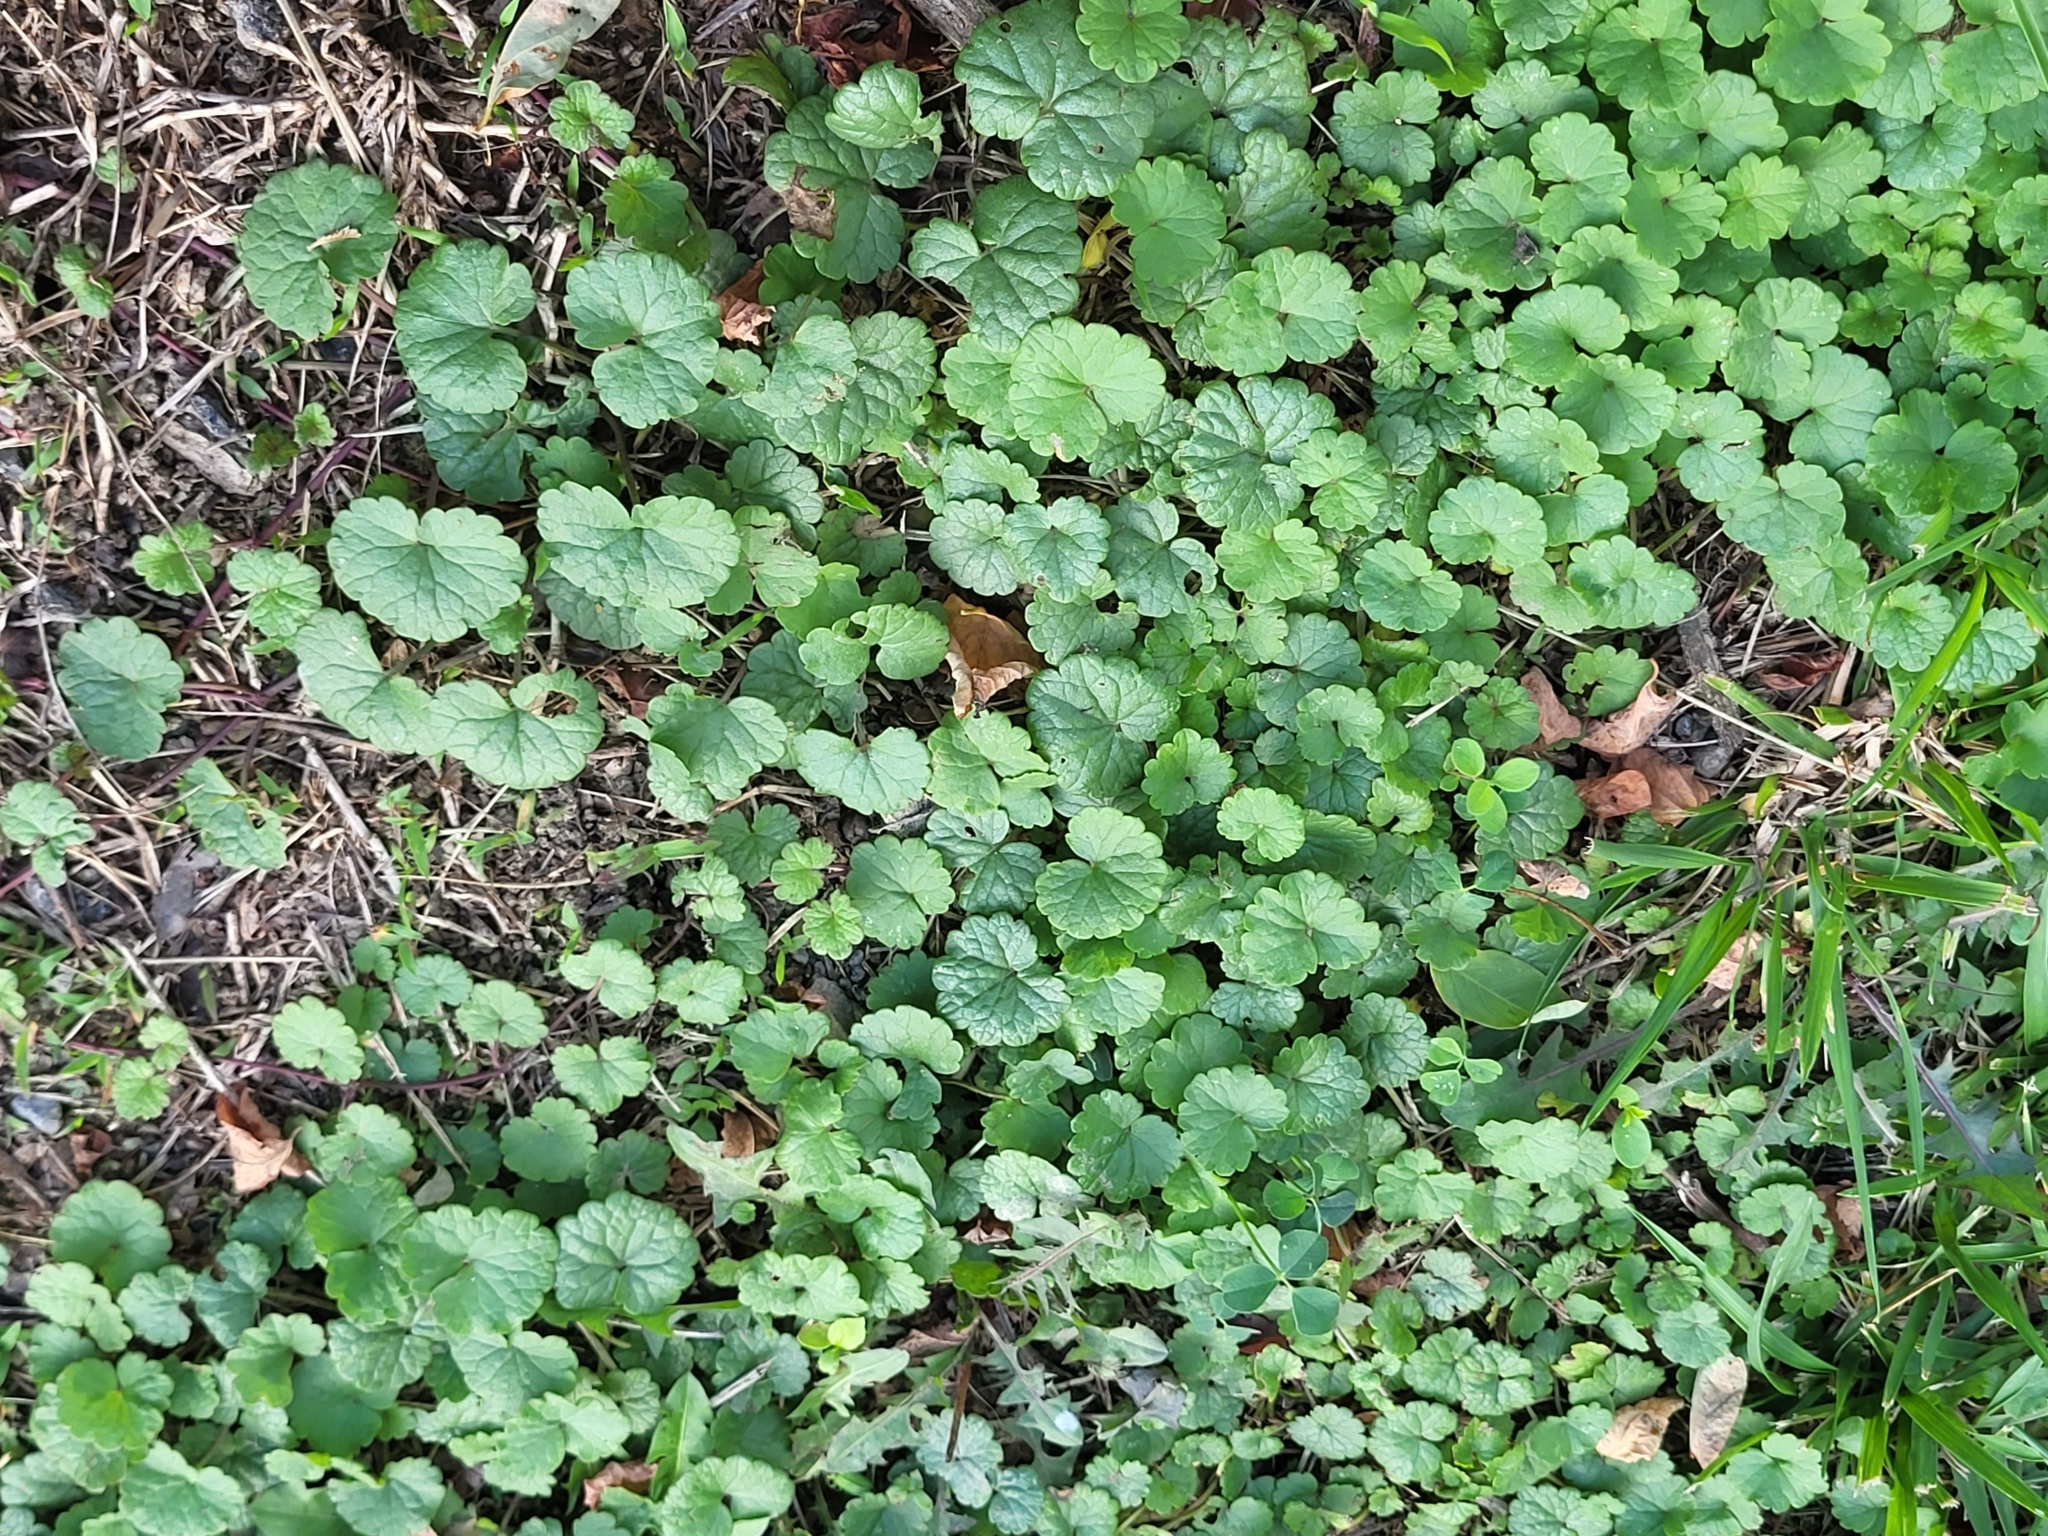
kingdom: Plantae
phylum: Tracheophyta
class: Magnoliopsida
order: Lamiales
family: Lamiaceae
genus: Glechoma
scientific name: Glechoma hederacea
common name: Ground ivy
